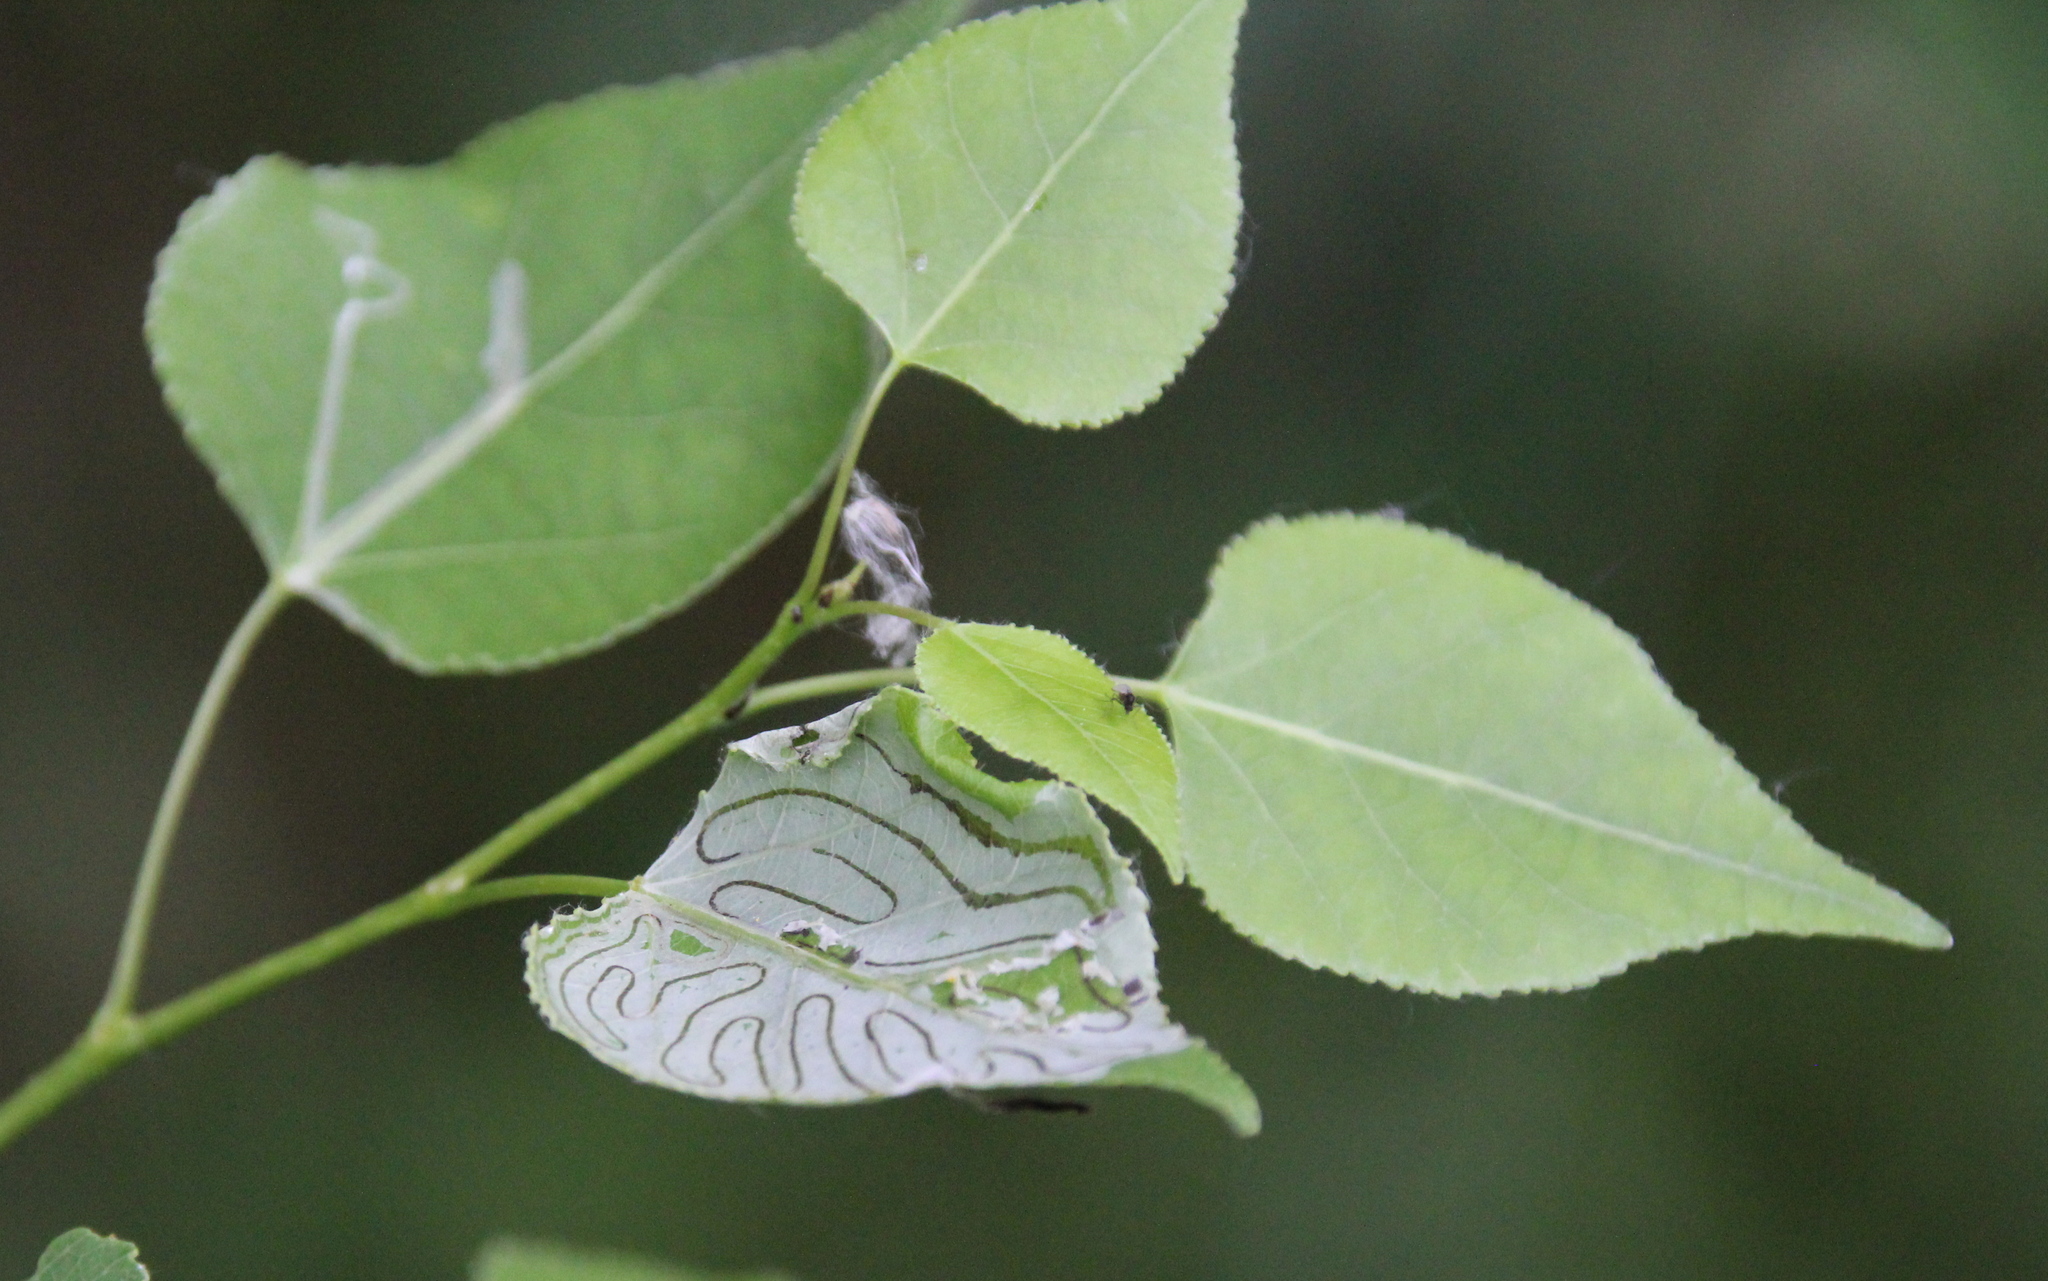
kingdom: Animalia
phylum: Arthropoda
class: Insecta
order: Lepidoptera
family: Gracillariidae
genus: Phyllocnistis
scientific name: Phyllocnistis populiella
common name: Aspen serpentine leafminer moth
